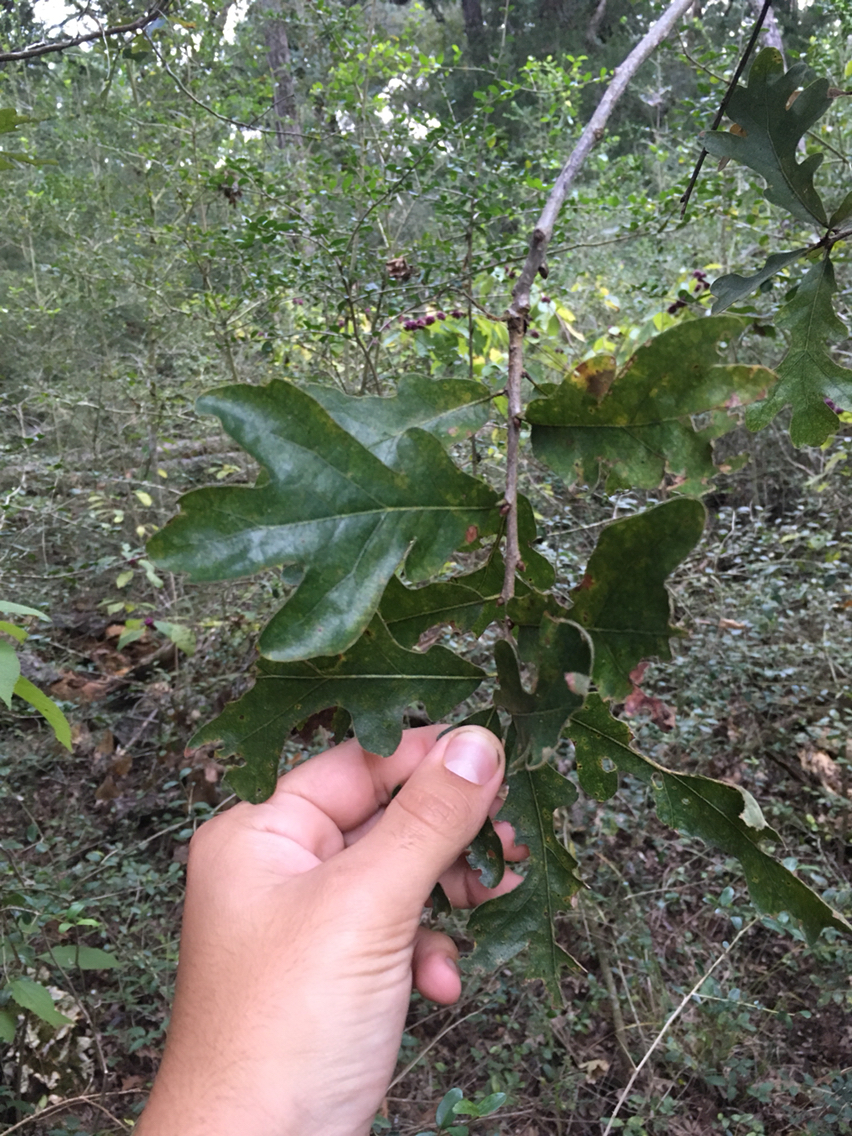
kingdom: Plantae
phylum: Tracheophyta
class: Magnoliopsida
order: Fagales
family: Fagaceae
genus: Quercus
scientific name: Quercus stellata
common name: Post oak
